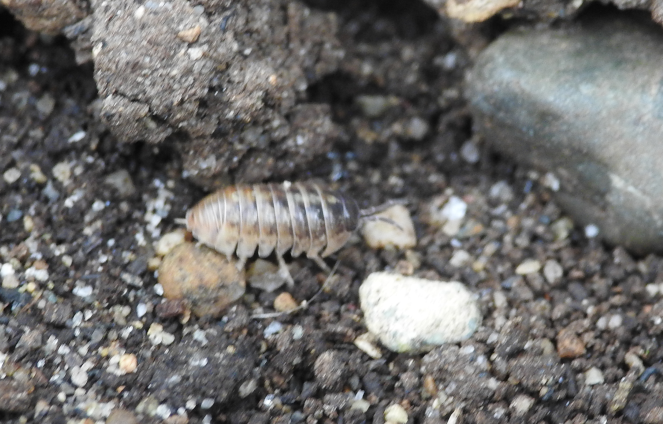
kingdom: Animalia
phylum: Arthropoda
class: Malacostraca
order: Isopoda
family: Armadillidiidae
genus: Armadillidium
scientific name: Armadillidium vulgare
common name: Common pill woodlouse
